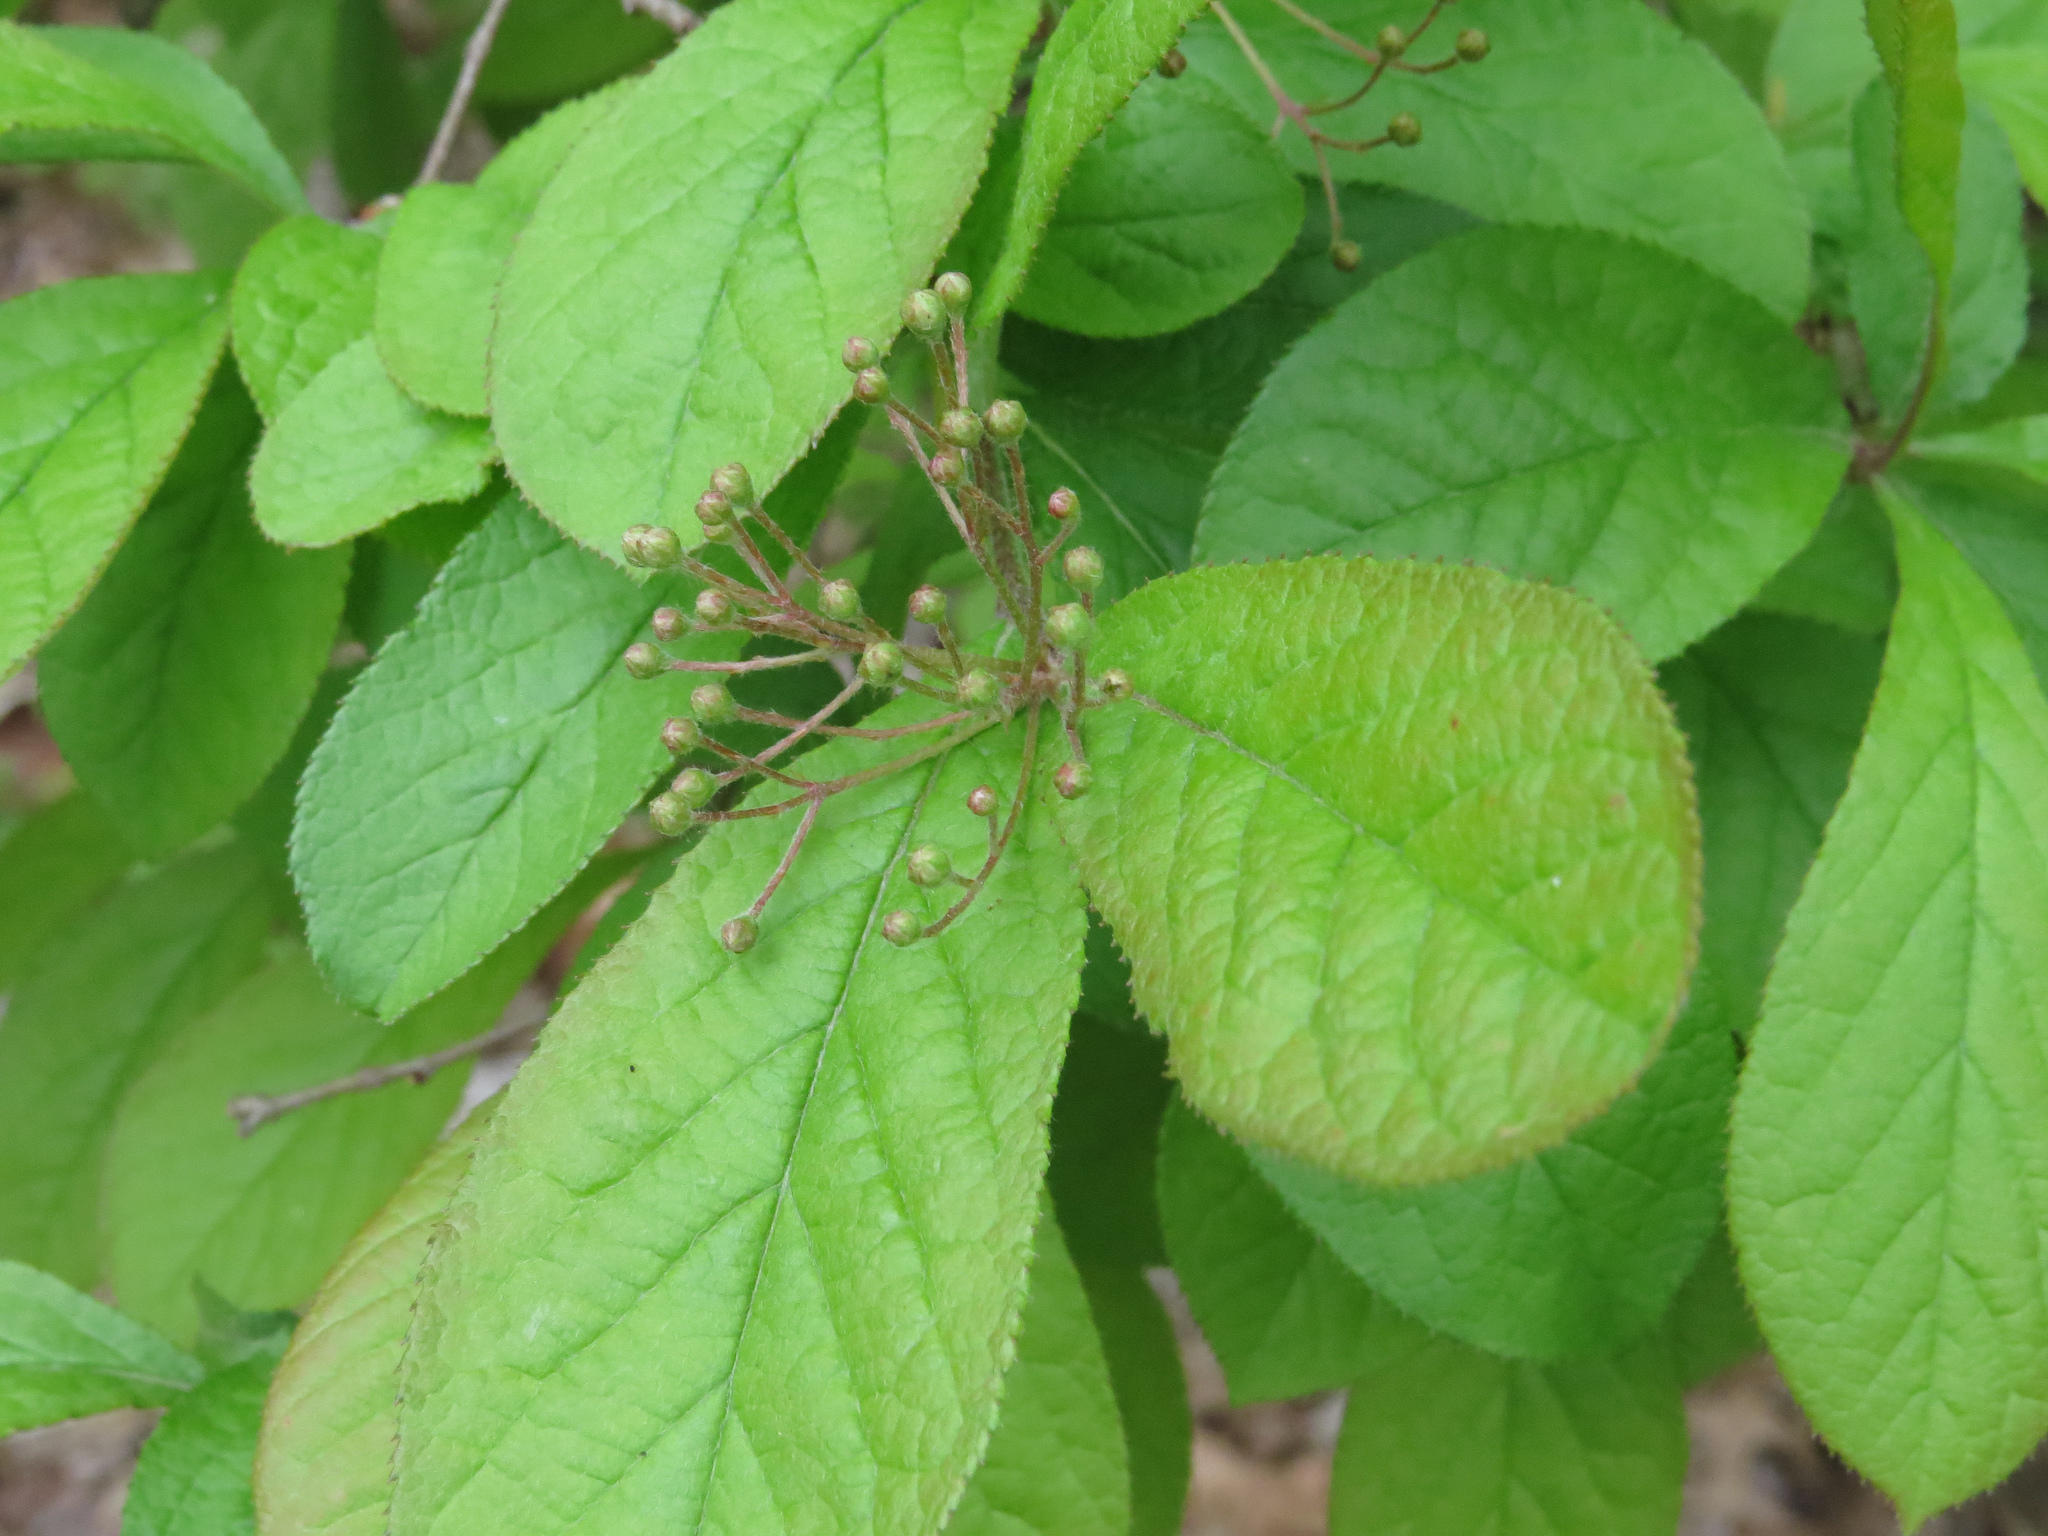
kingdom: Plantae
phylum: Tracheophyta
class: Magnoliopsida
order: Rosales
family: Rosaceae
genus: Pourthiaea
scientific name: Pourthiaea villosa
